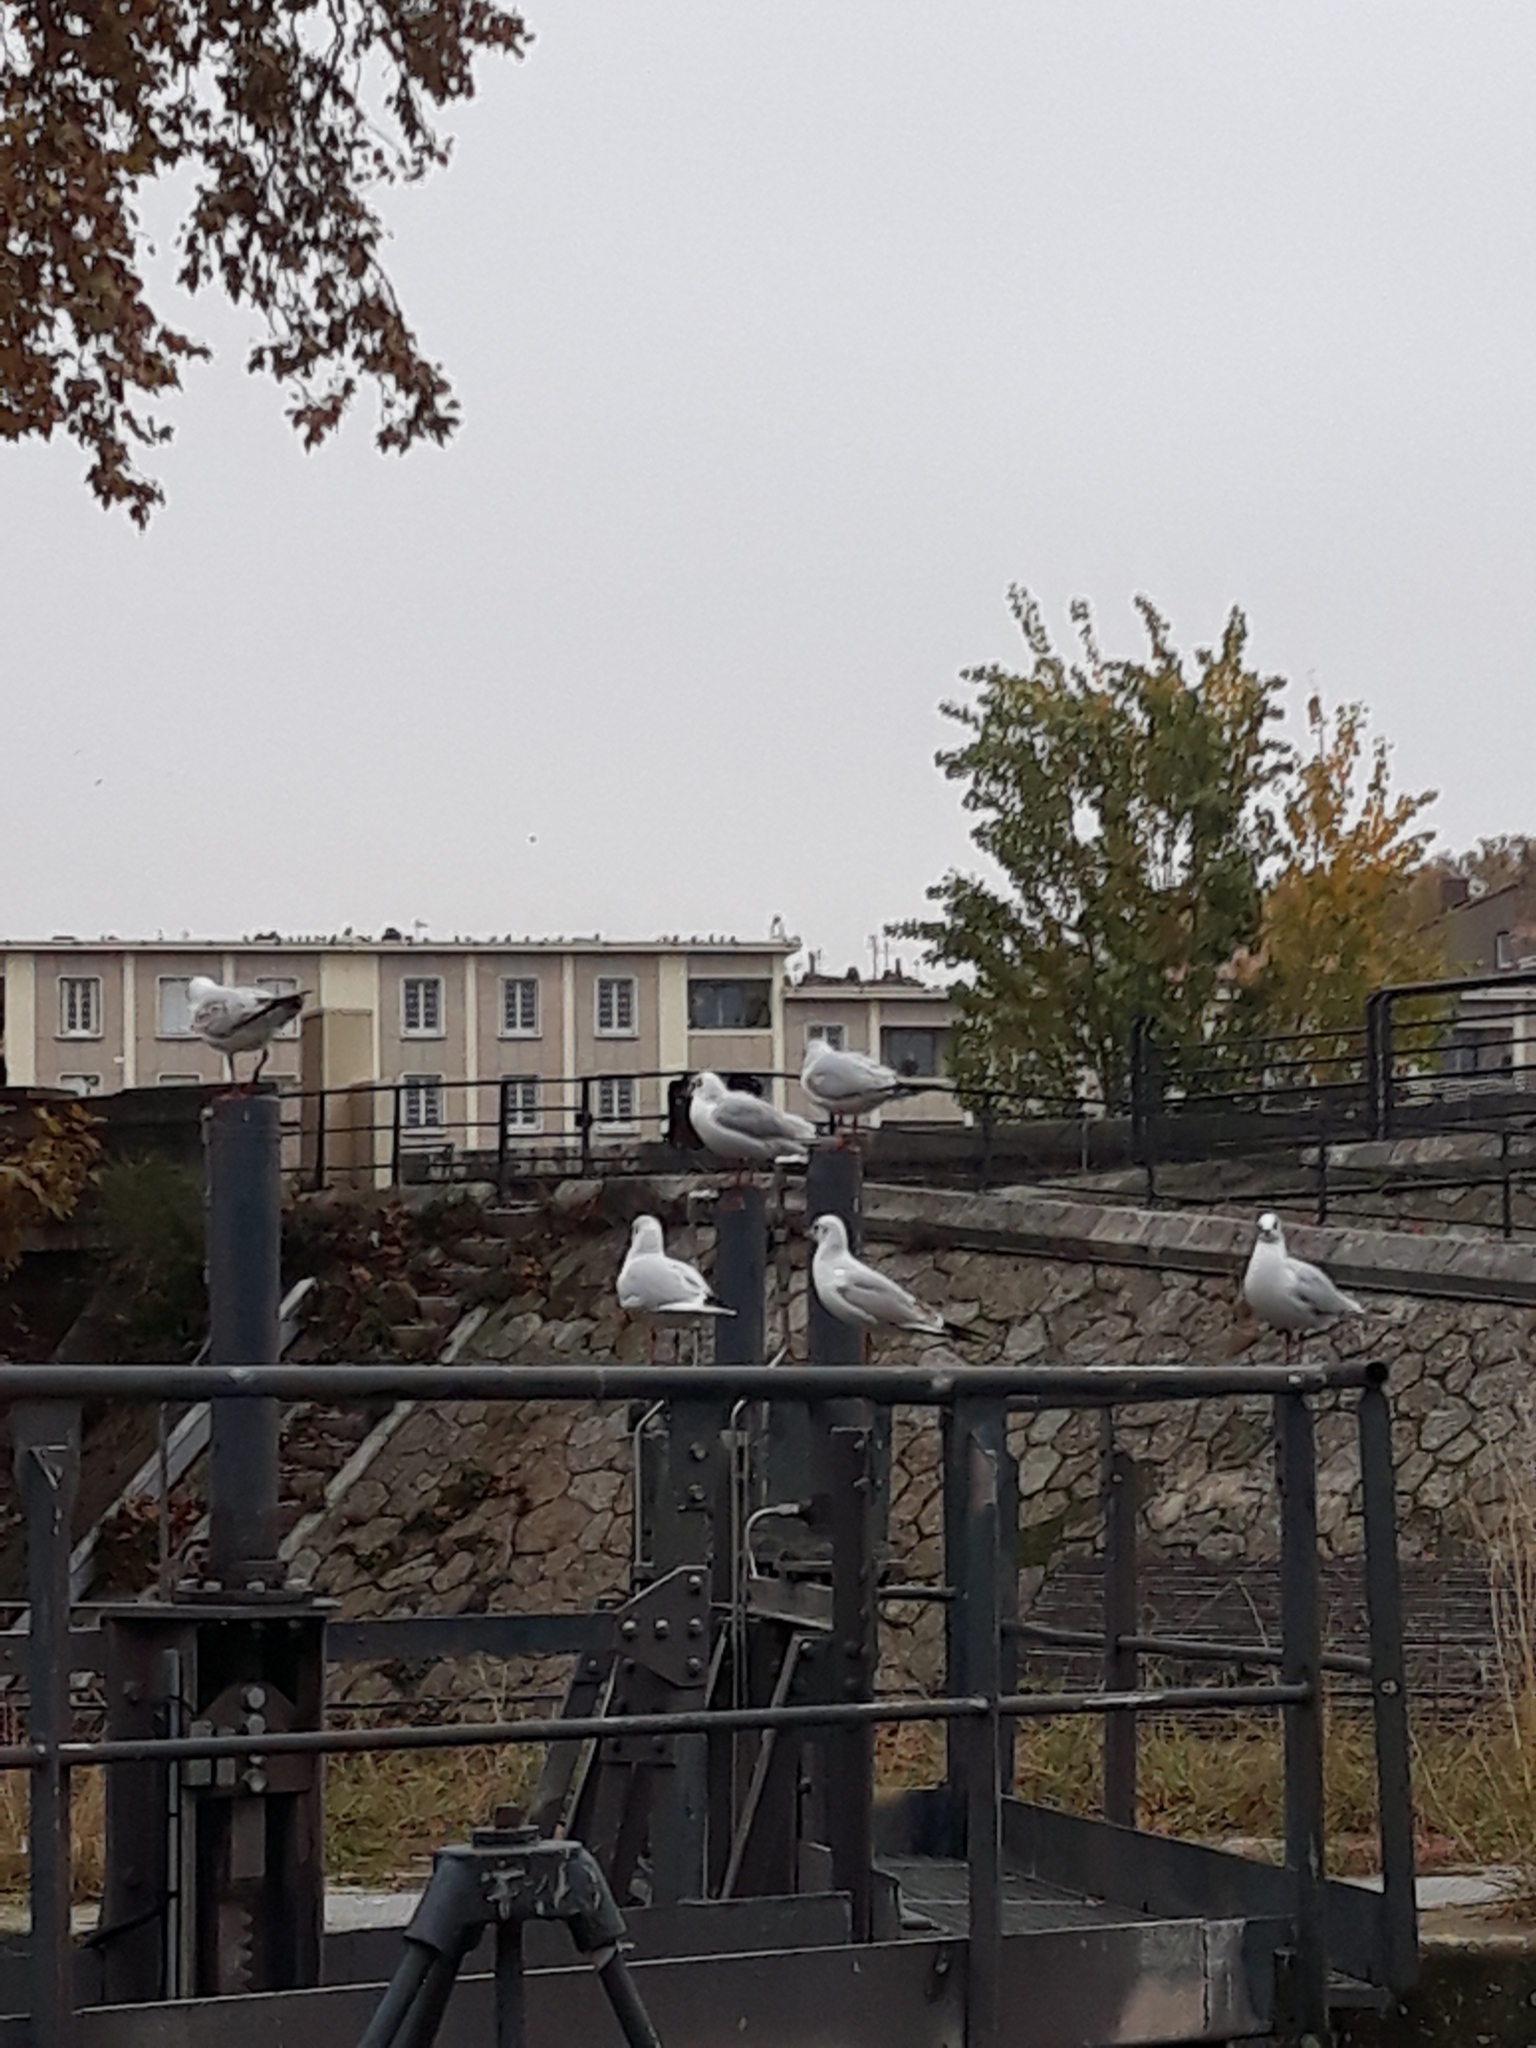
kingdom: Animalia
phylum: Chordata
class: Aves
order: Charadriiformes
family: Laridae
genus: Chroicocephalus
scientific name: Chroicocephalus ridibundus
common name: Black-headed gull
